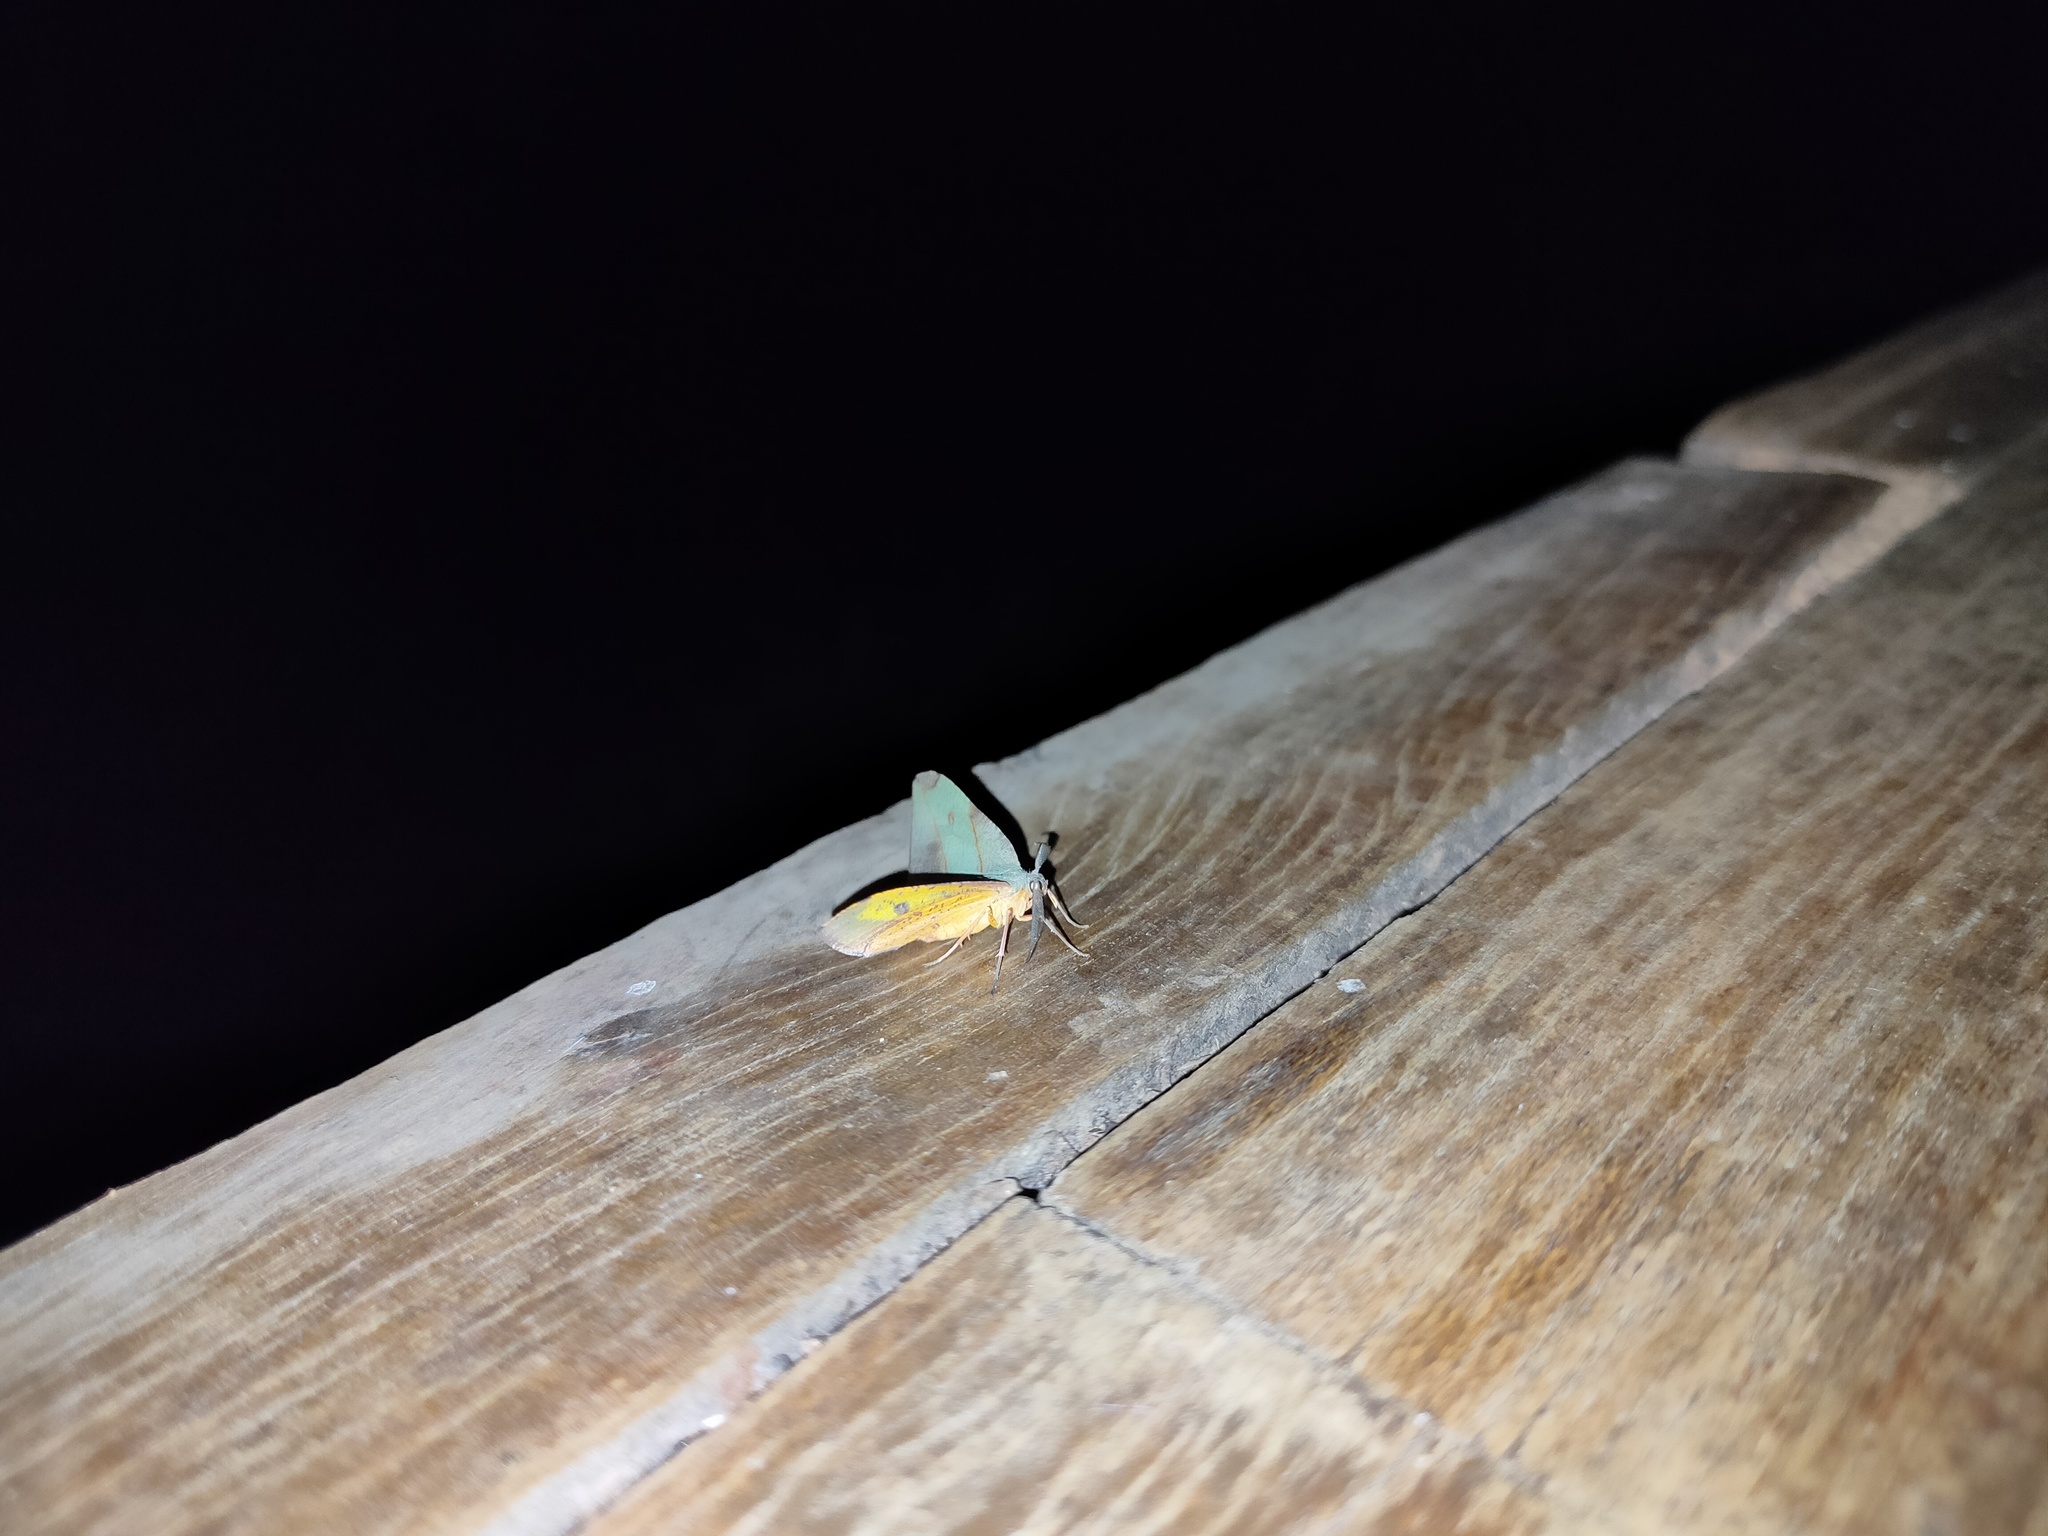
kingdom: Animalia
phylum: Arthropoda
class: Insecta
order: Lepidoptera
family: Geometridae
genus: Hypochrosis
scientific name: Hypochrosis hyadaria
